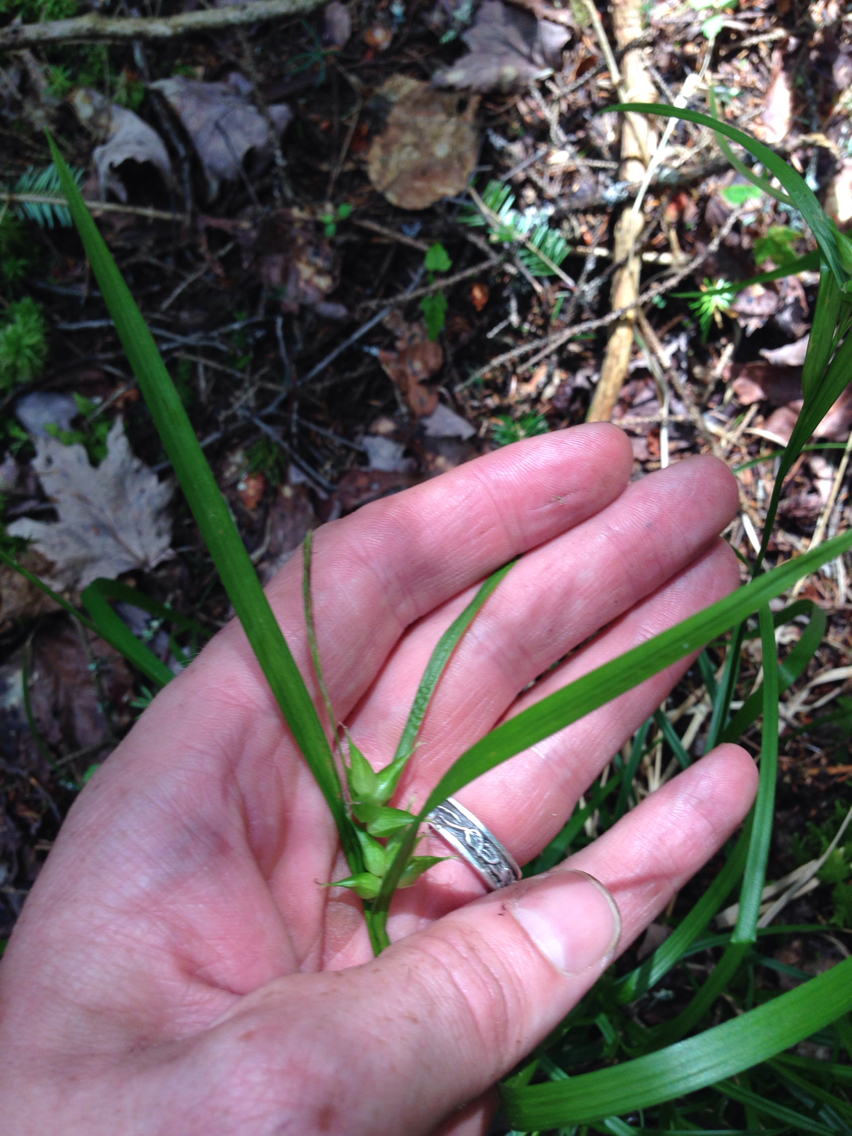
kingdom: Plantae
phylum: Tracheophyta
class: Liliopsida
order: Poales
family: Cyperaceae
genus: Carex
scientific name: Carex intumescens
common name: Greater bladder sedge
